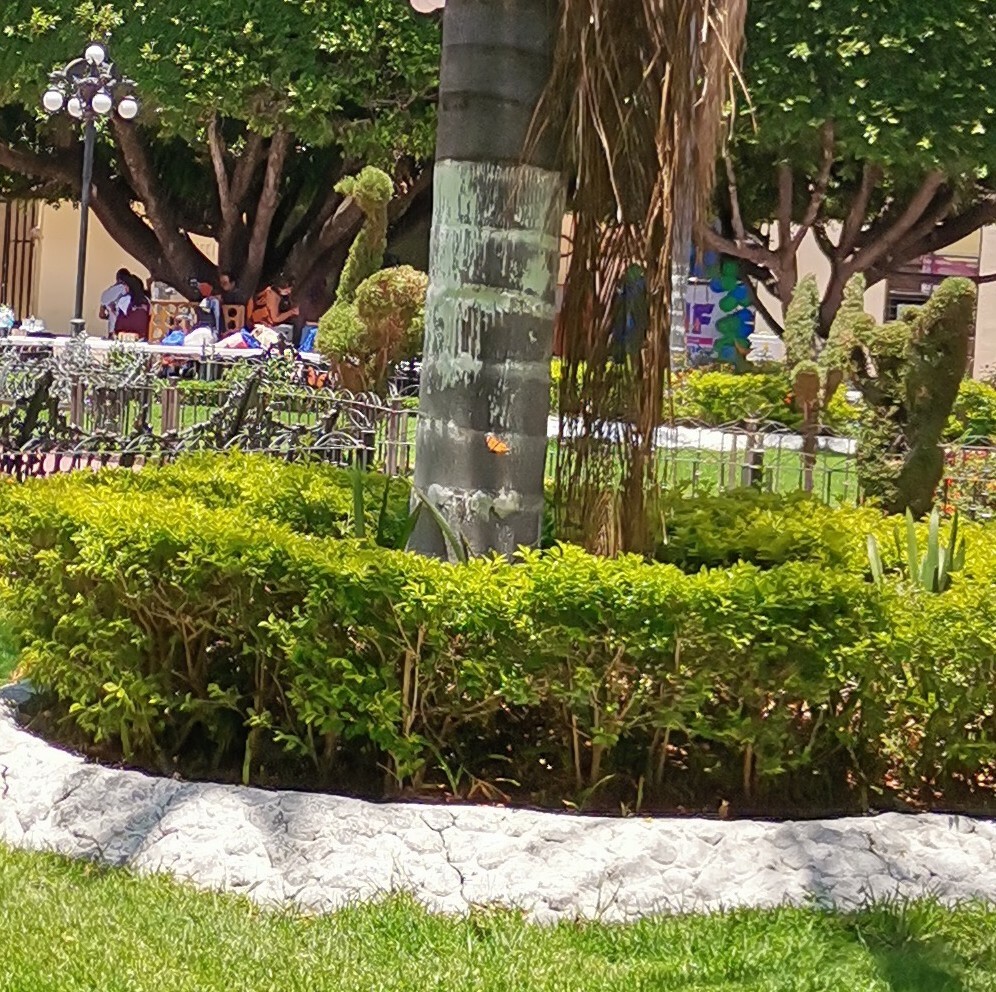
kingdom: Animalia
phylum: Arthropoda
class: Insecta
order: Lepidoptera
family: Nymphalidae
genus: Danaus
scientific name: Danaus plexippus
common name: Monarch
